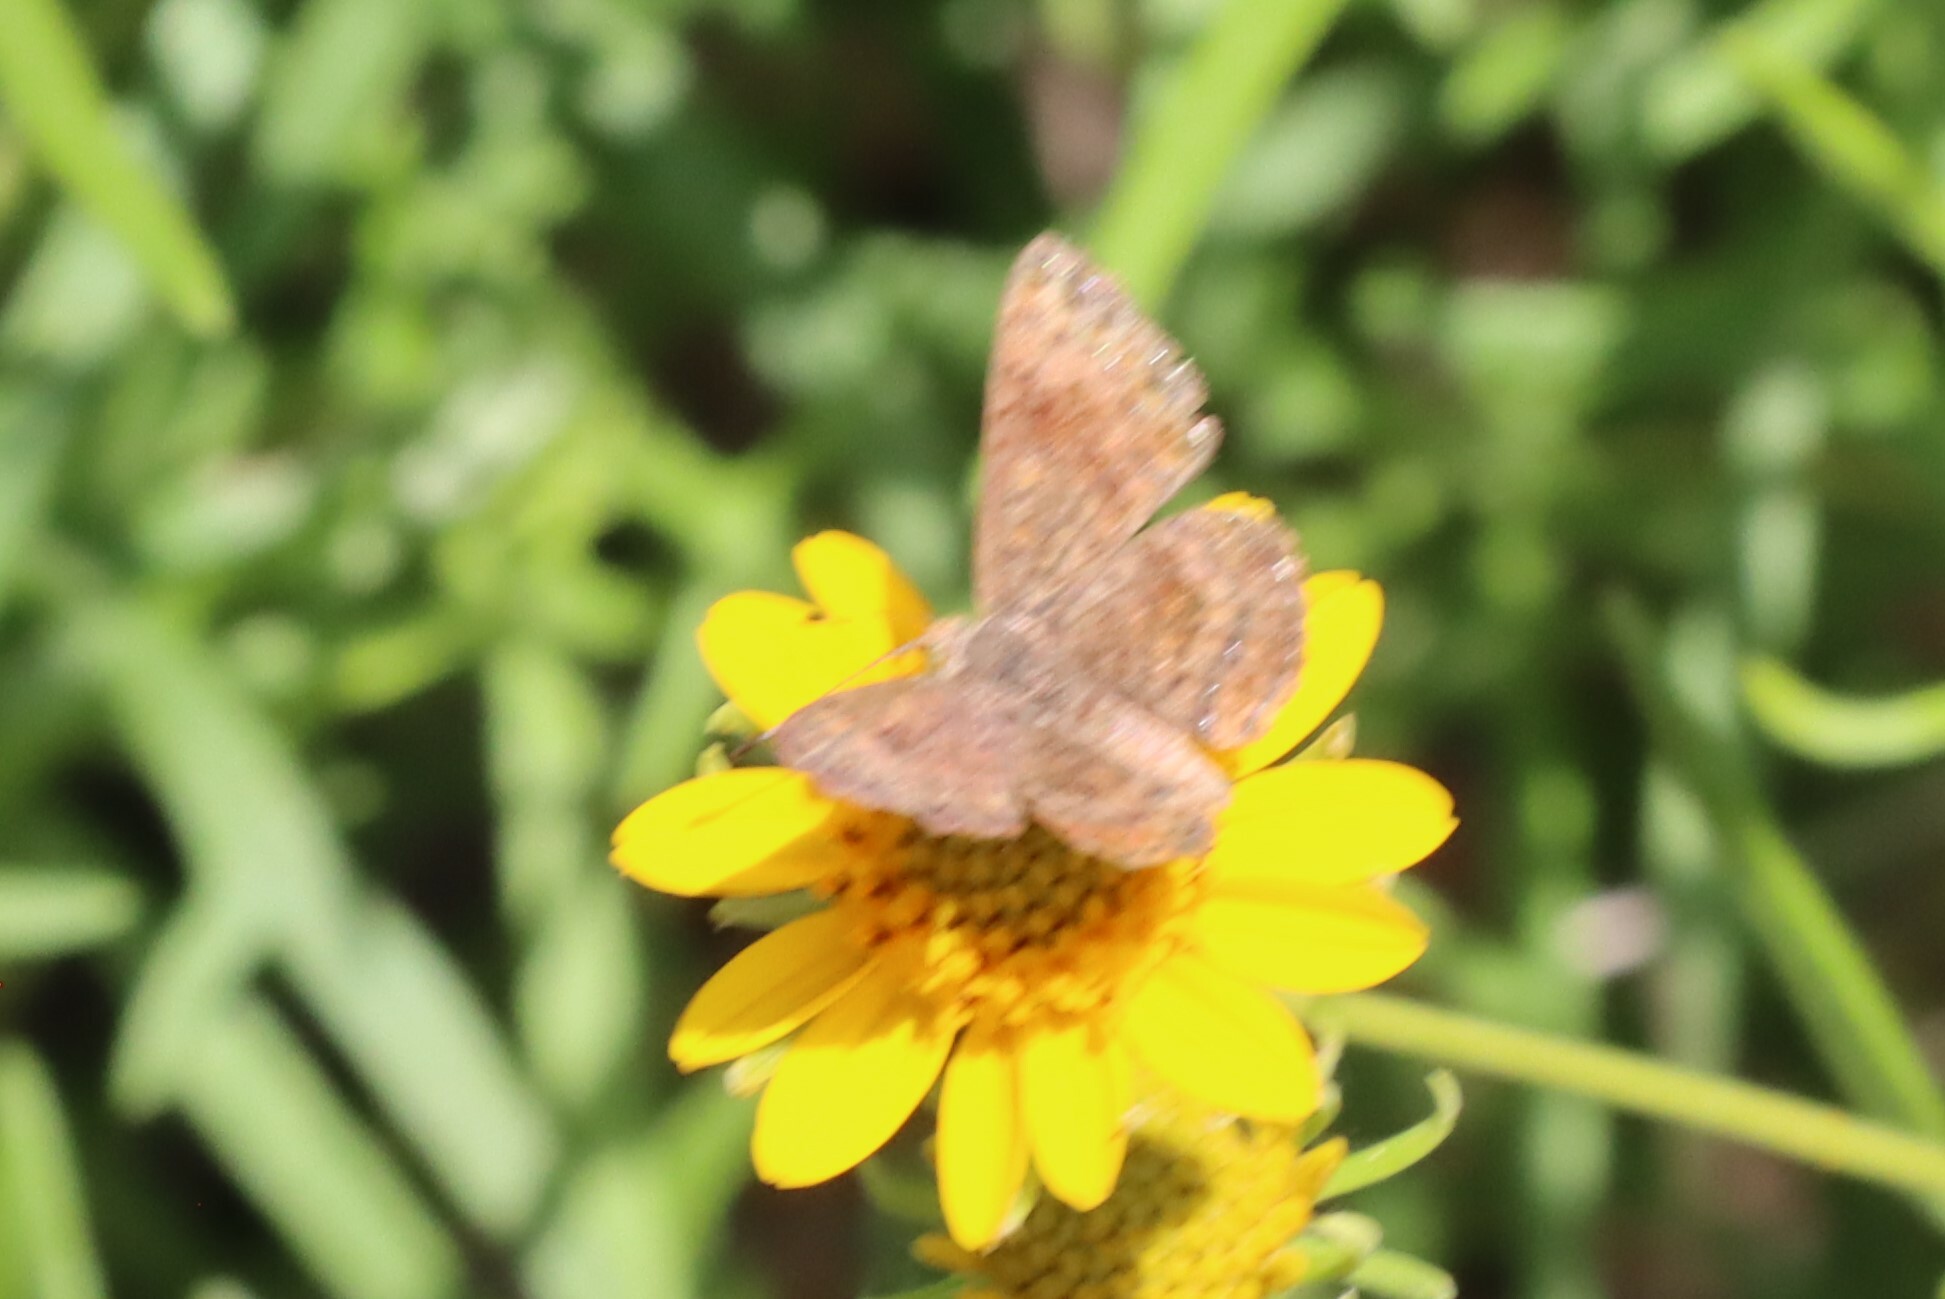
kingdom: Animalia
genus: Calephelis
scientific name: Calephelis nemesis
